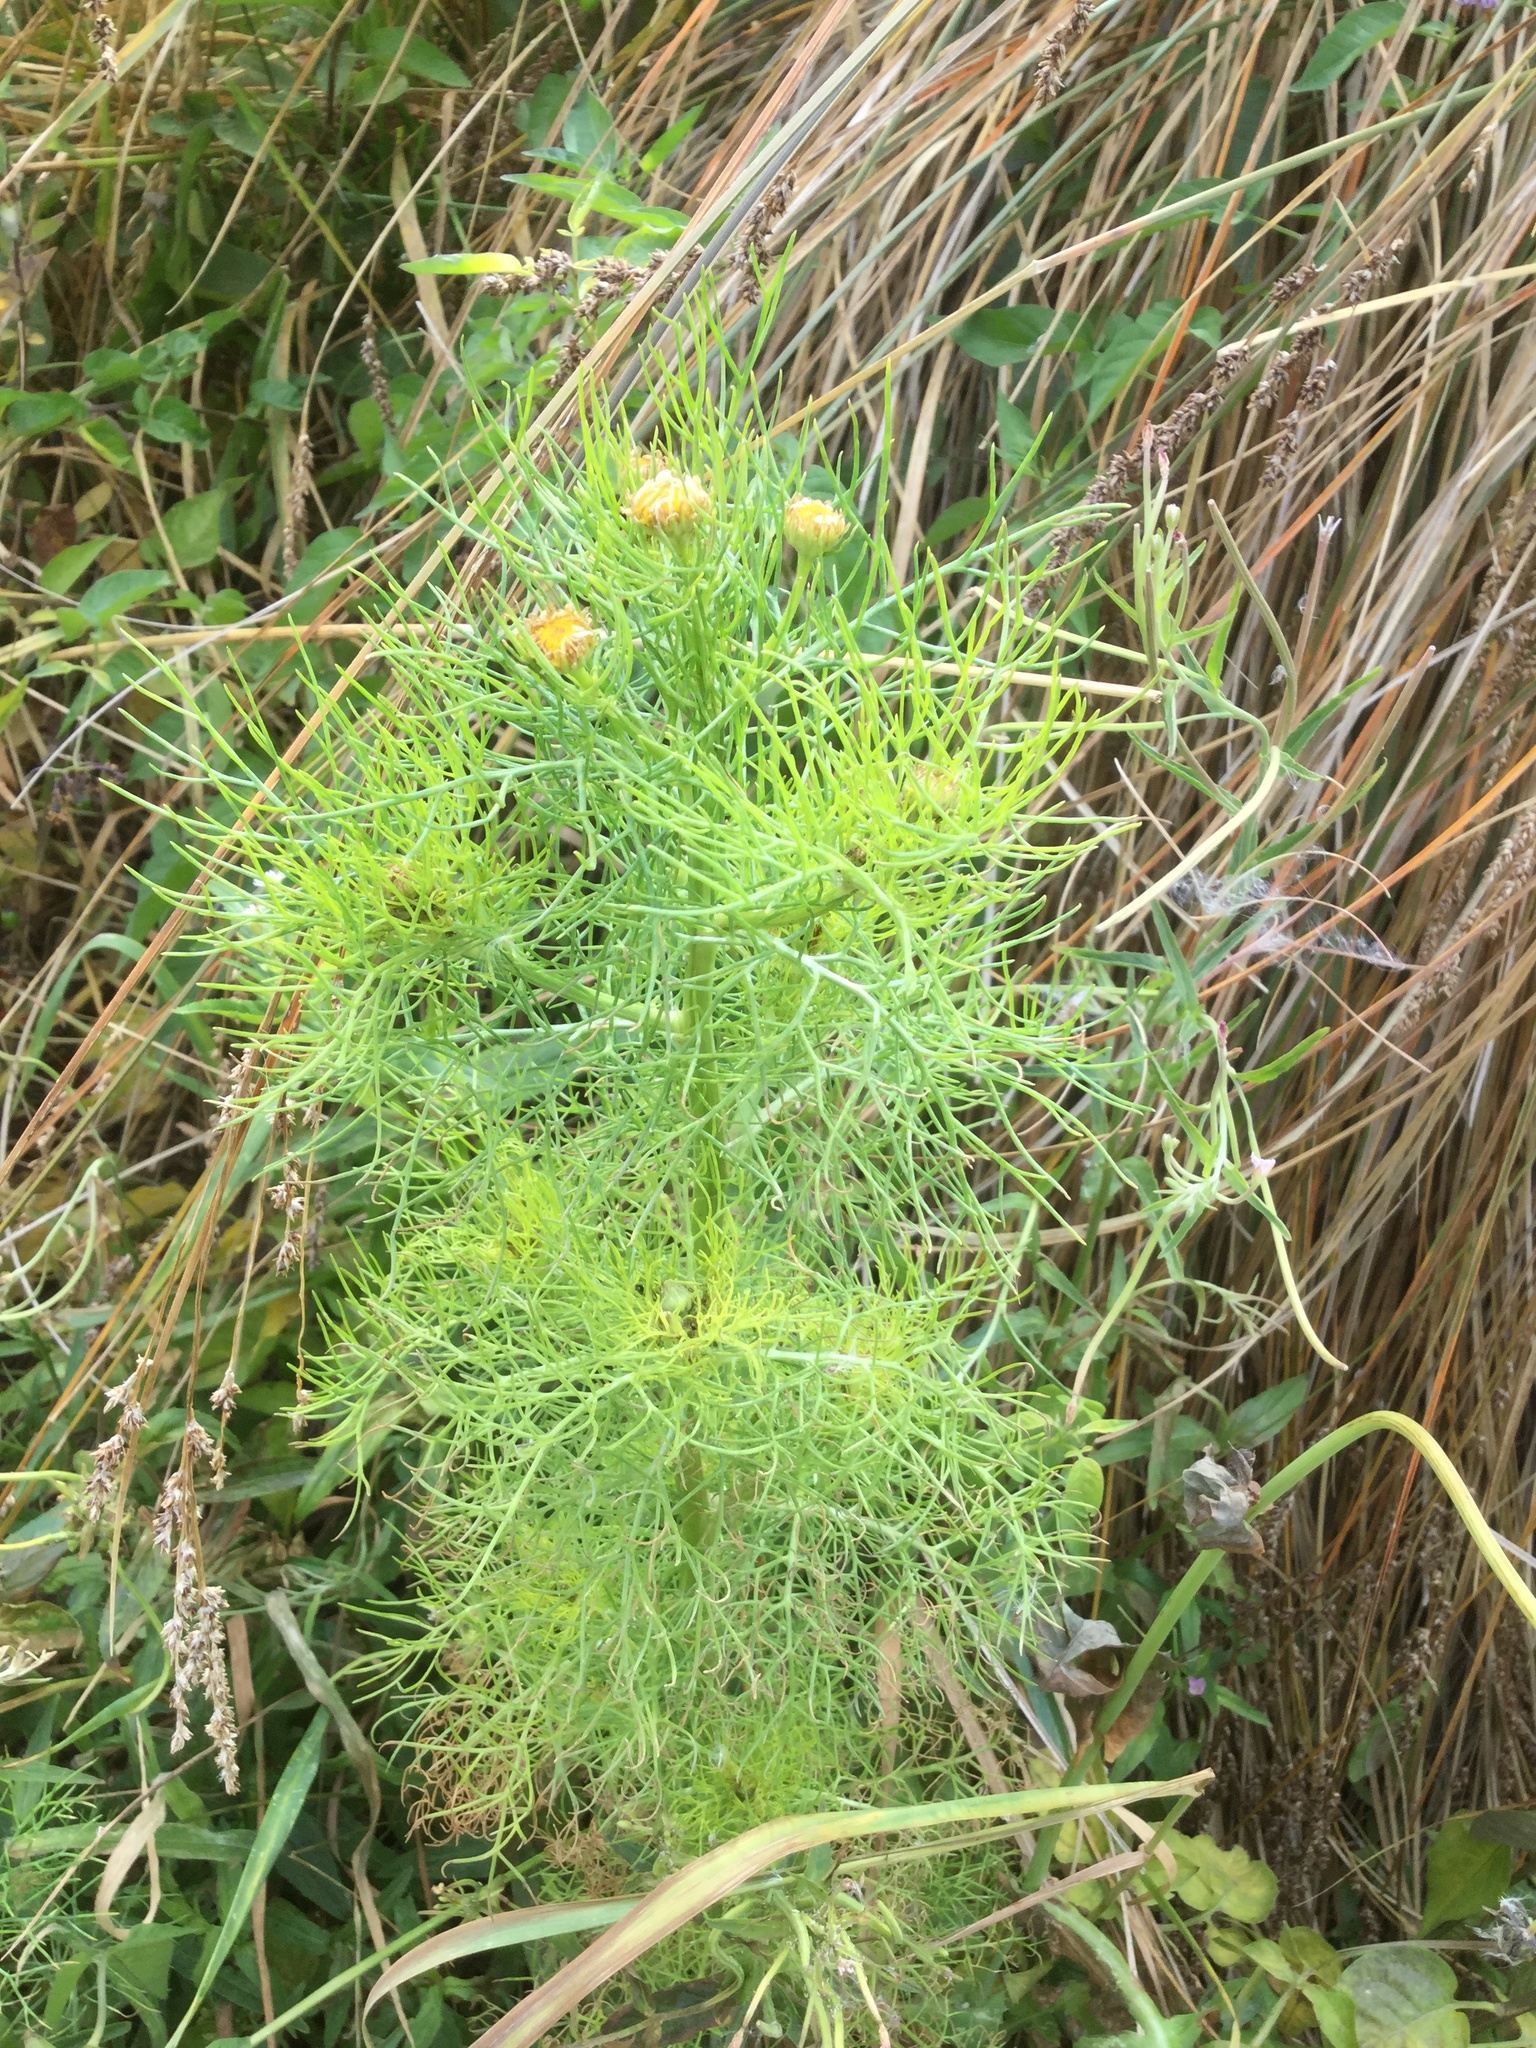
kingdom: Plantae
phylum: Tracheophyta
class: Magnoliopsida
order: Asterales
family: Asteraceae
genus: Tripleurospermum
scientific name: Tripleurospermum inodorum
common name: Scentless mayweed
